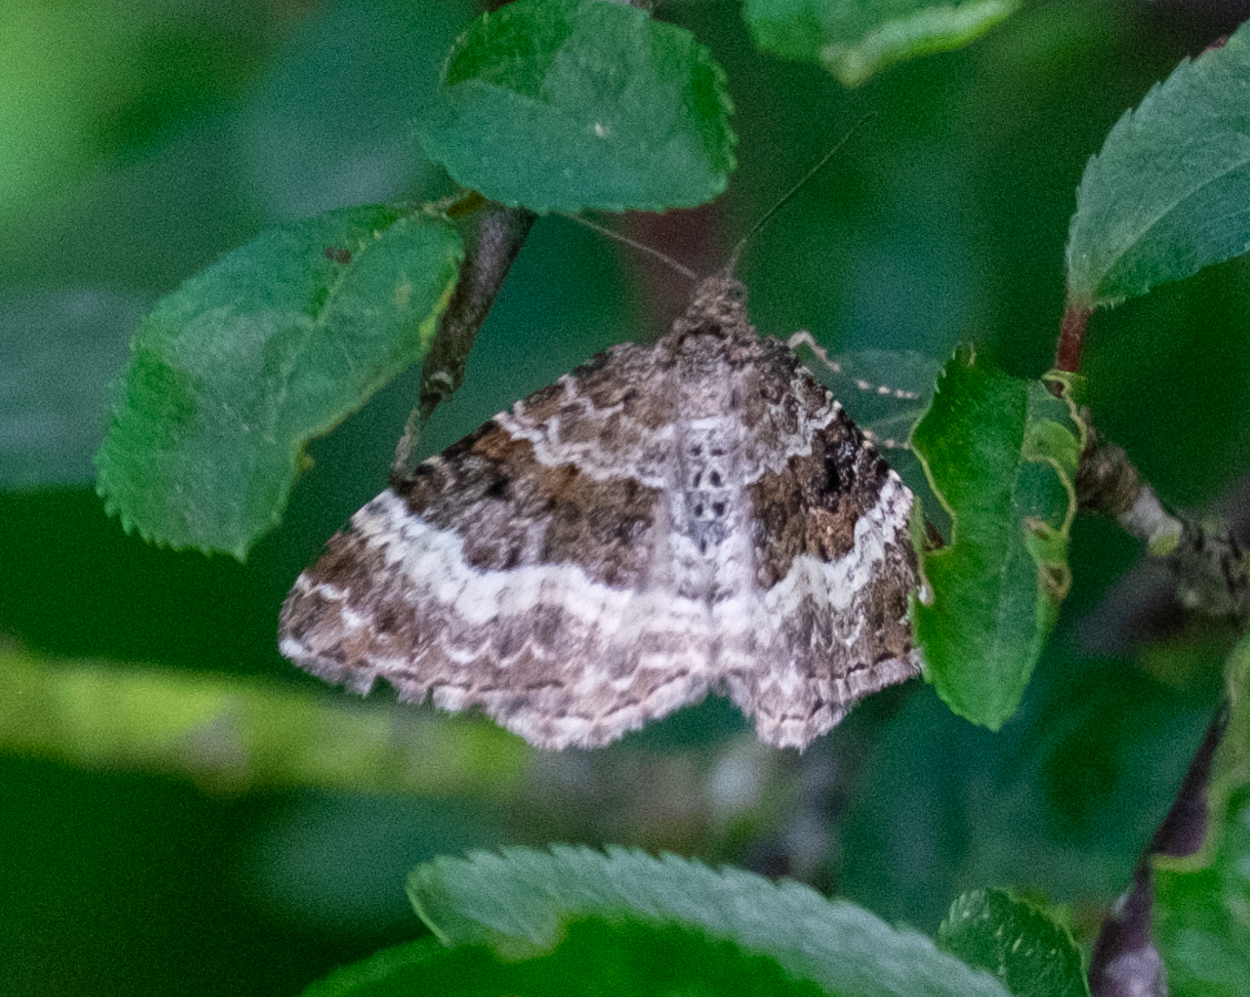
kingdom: Animalia
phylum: Arthropoda
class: Insecta
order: Lepidoptera
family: Geometridae
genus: Epirrhoe
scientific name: Epirrhoe alternata
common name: Common carpet
